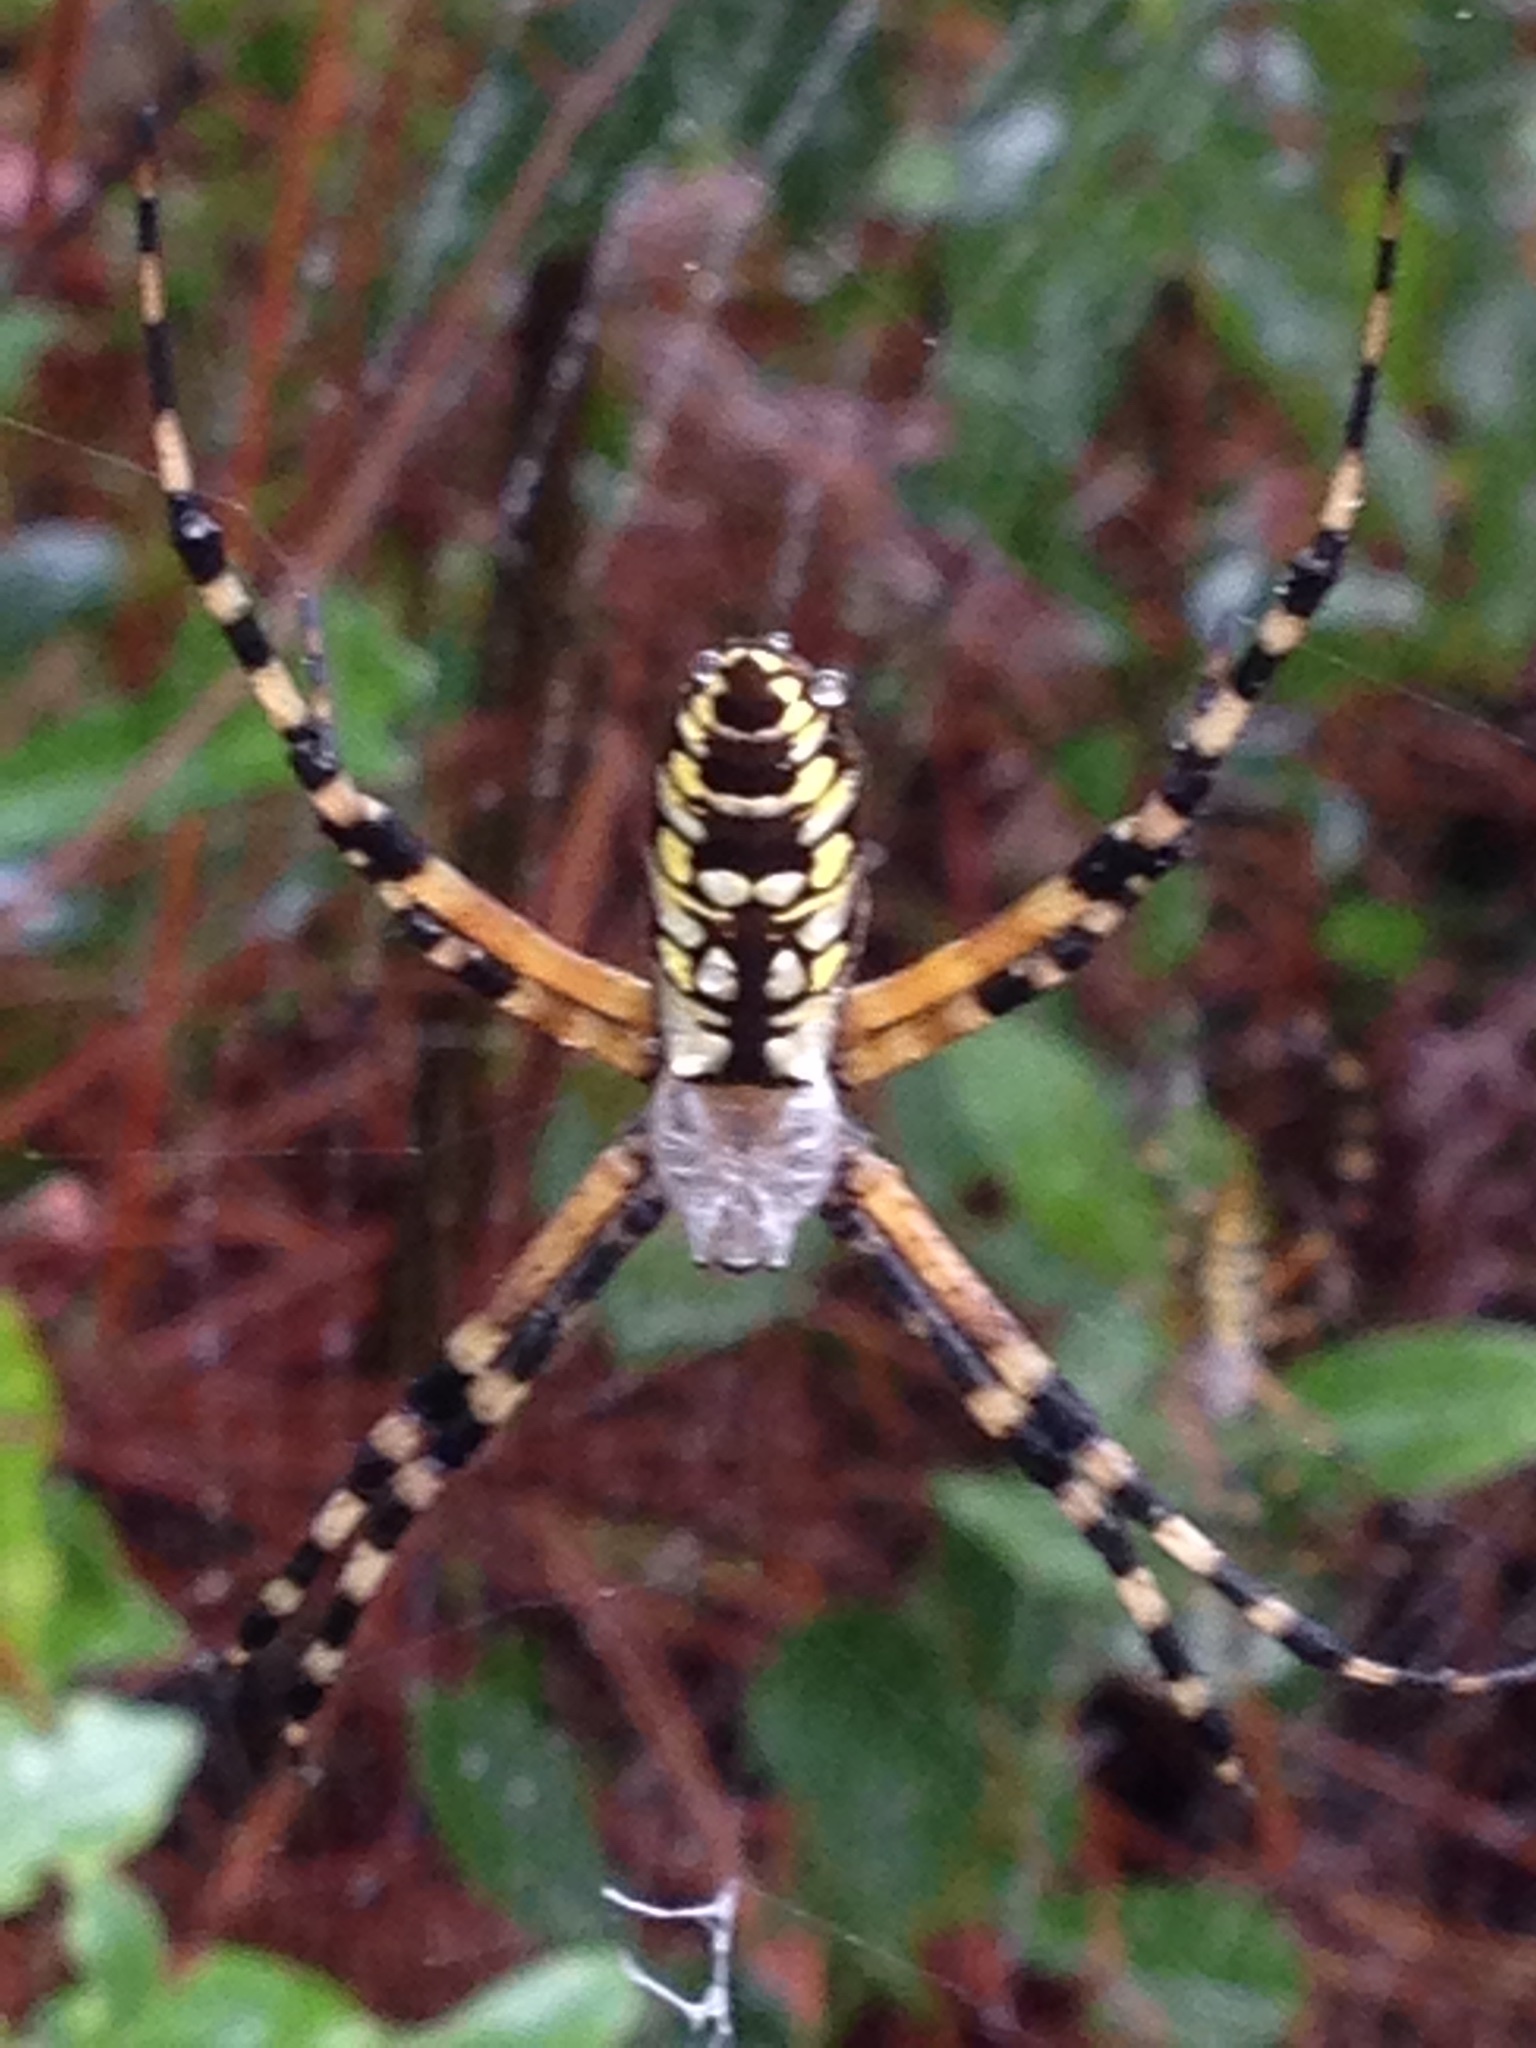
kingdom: Animalia
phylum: Arthropoda
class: Arachnida
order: Araneae
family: Araneidae
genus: Argiope
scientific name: Argiope aurantia
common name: Orb weavers
